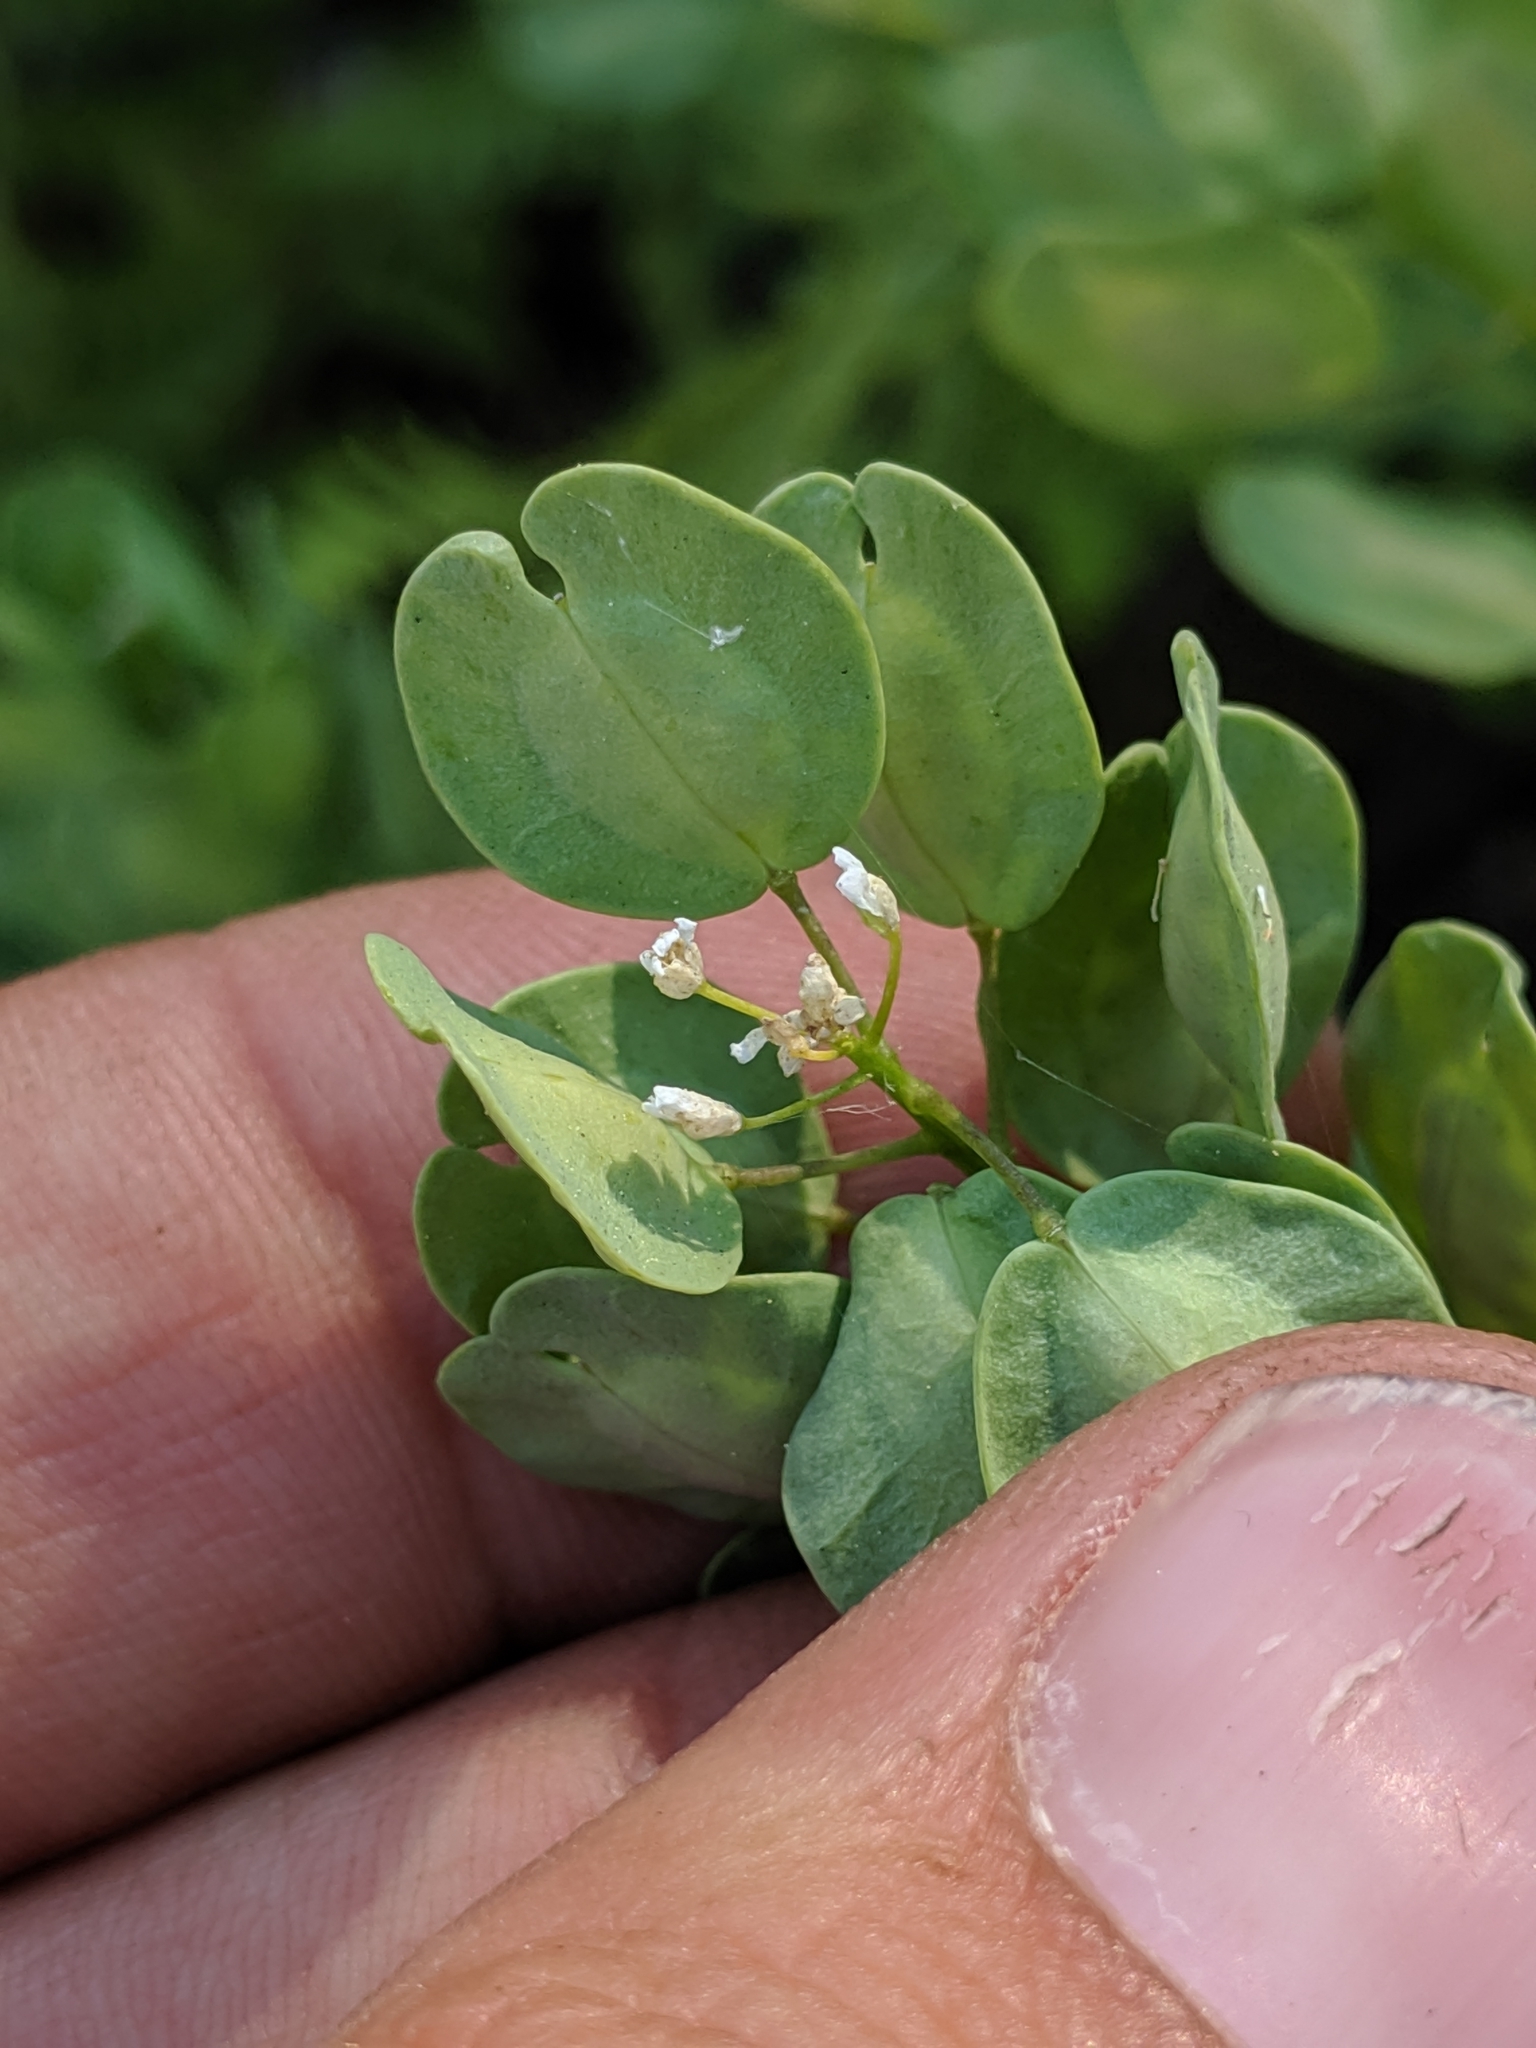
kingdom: Plantae
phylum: Tracheophyta
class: Magnoliopsida
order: Brassicales
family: Brassicaceae
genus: Thlaspi
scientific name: Thlaspi arvense
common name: Field pennycress
